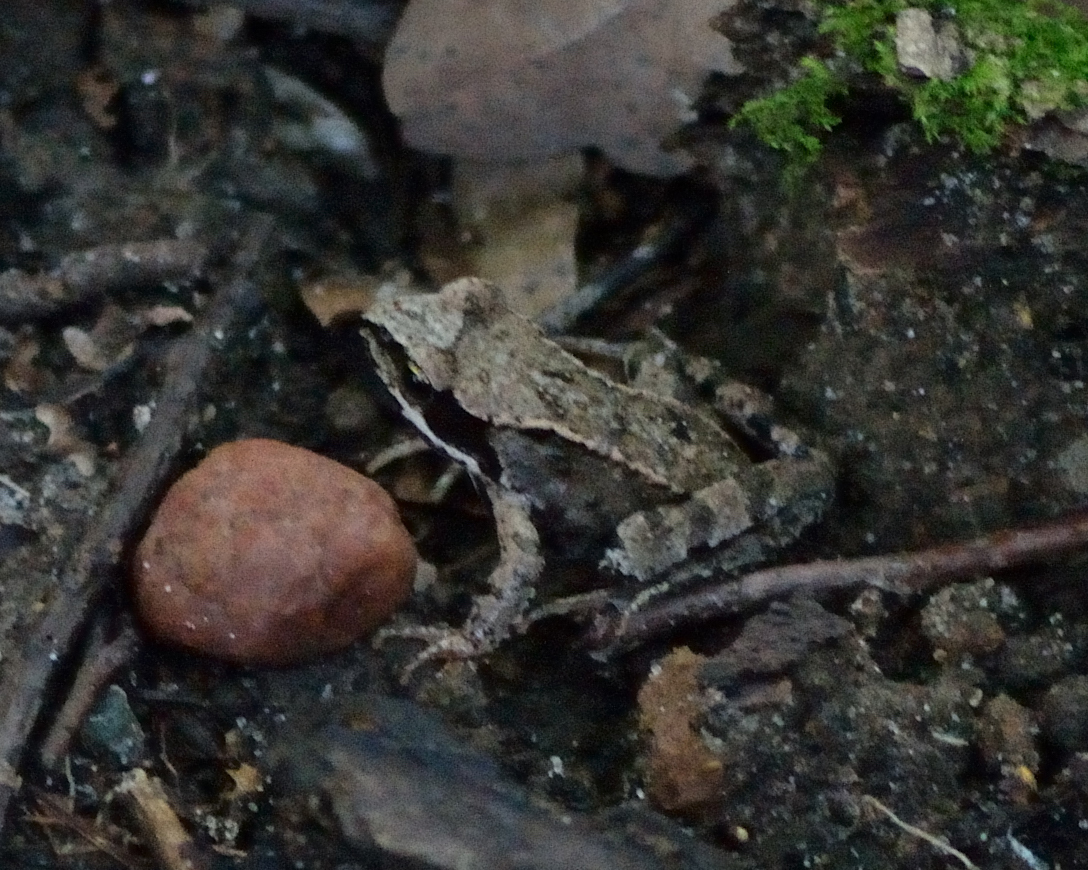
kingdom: Animalia
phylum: Chordata
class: Amphibia
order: Anura
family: Ranidae
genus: Rana
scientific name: Rana temporaria
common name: Common frog
